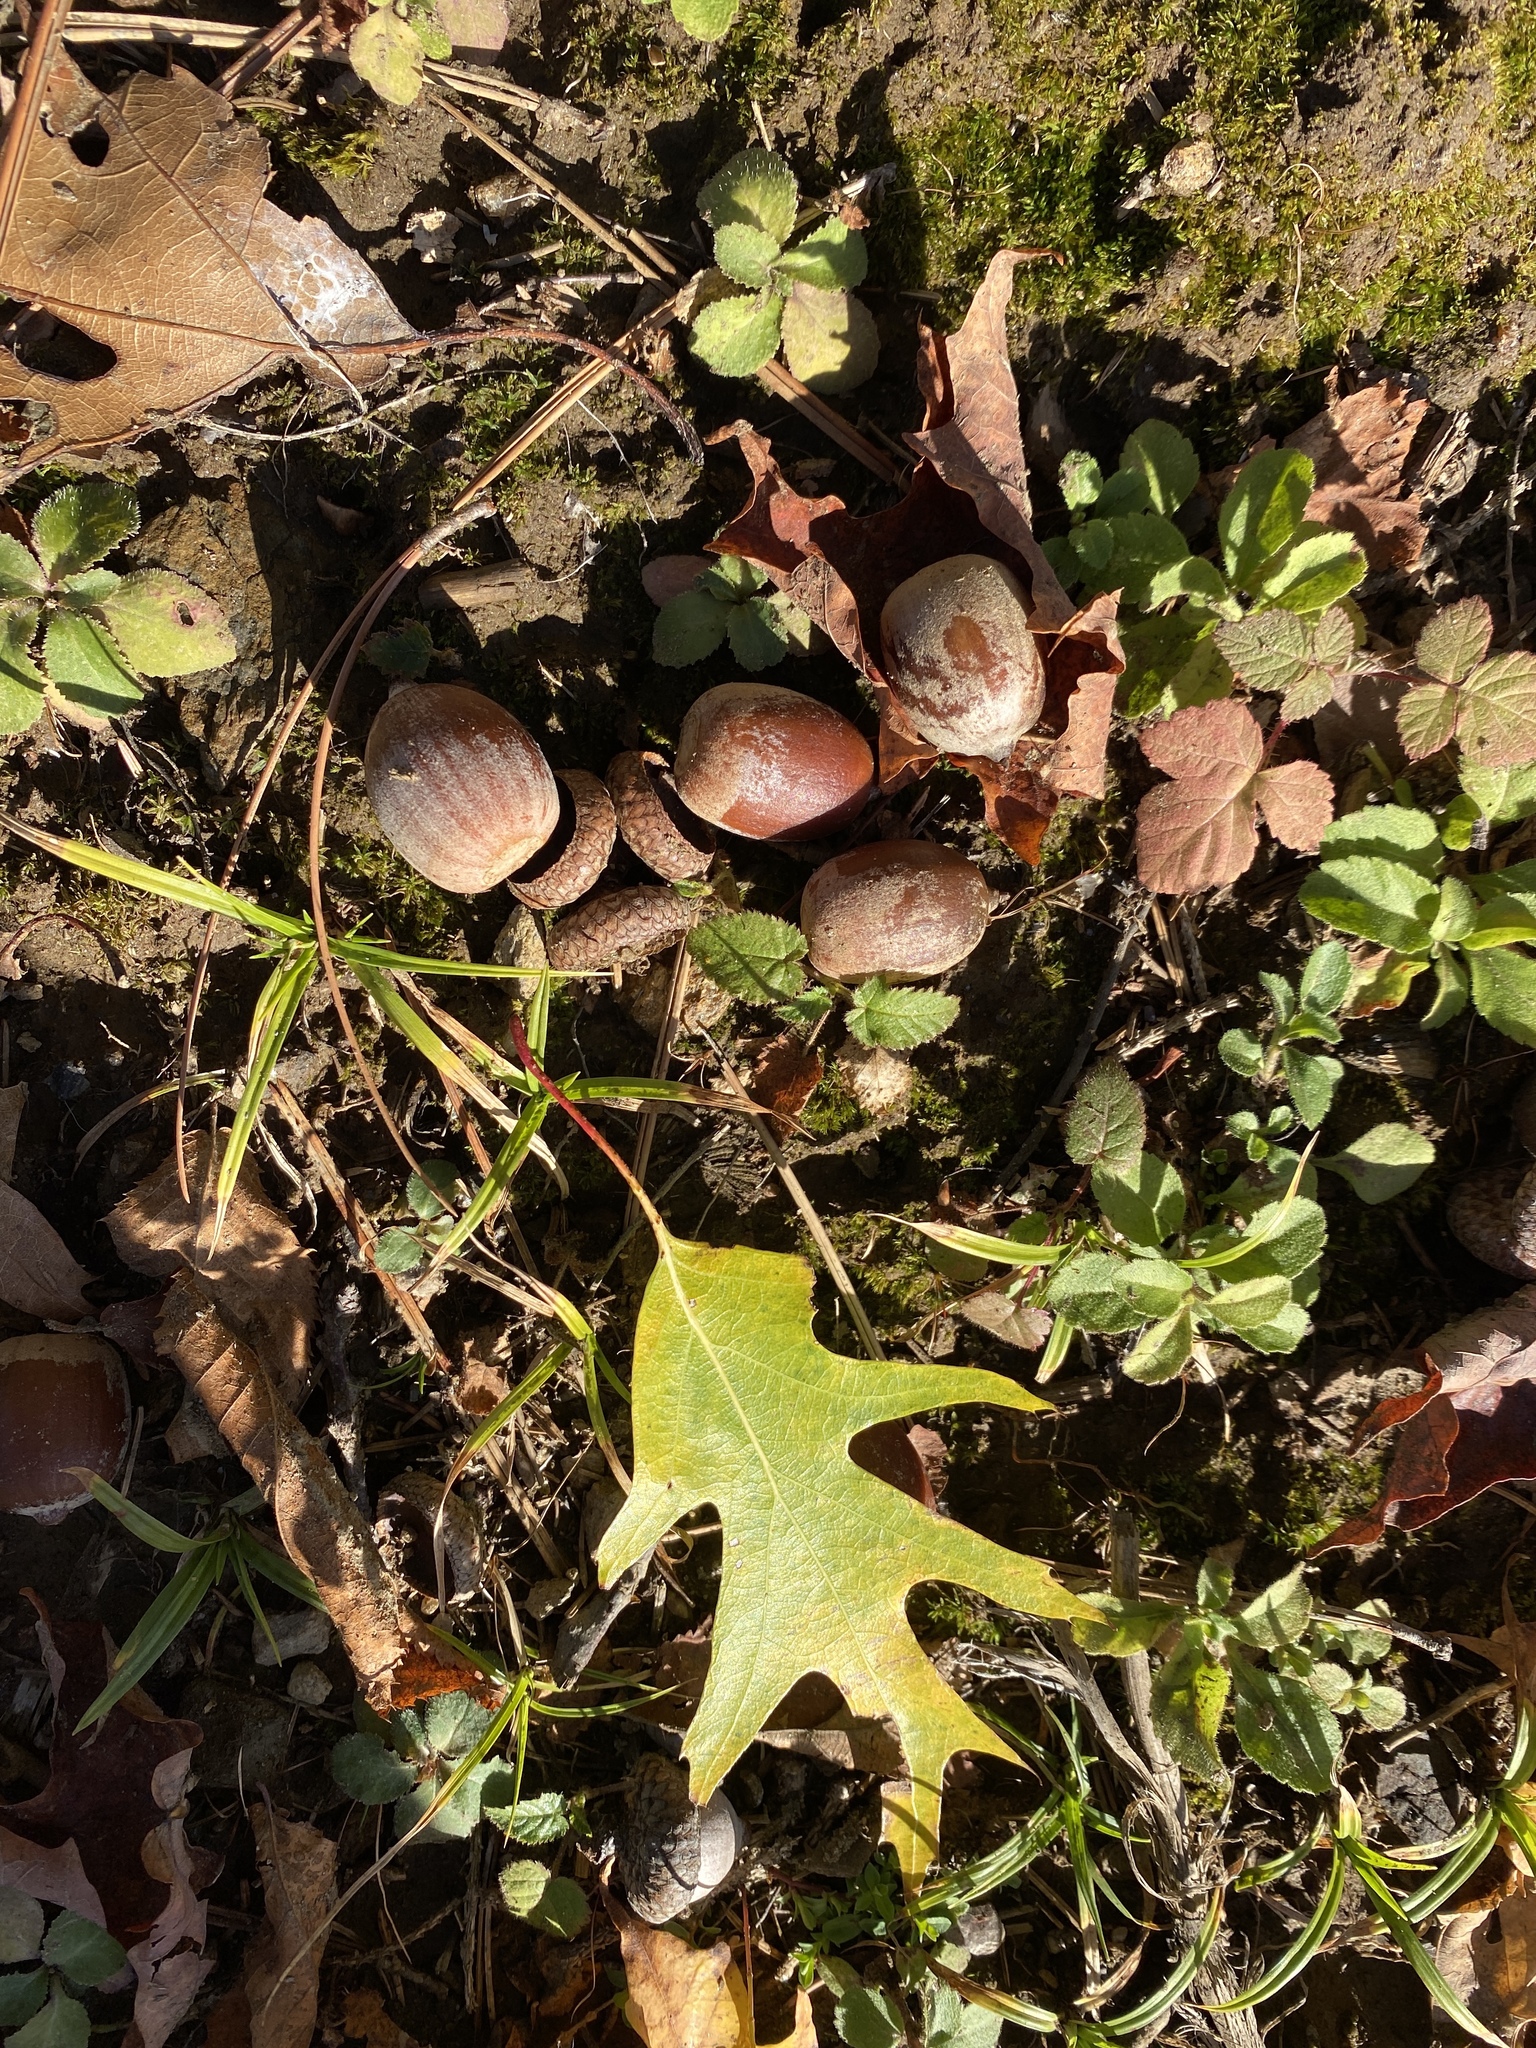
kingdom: Plantae
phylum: Tracheophyta
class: Magnoliopsida
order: Fagales
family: Fagaceae
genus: Quercus
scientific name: Quercus rubra
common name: Red oak
